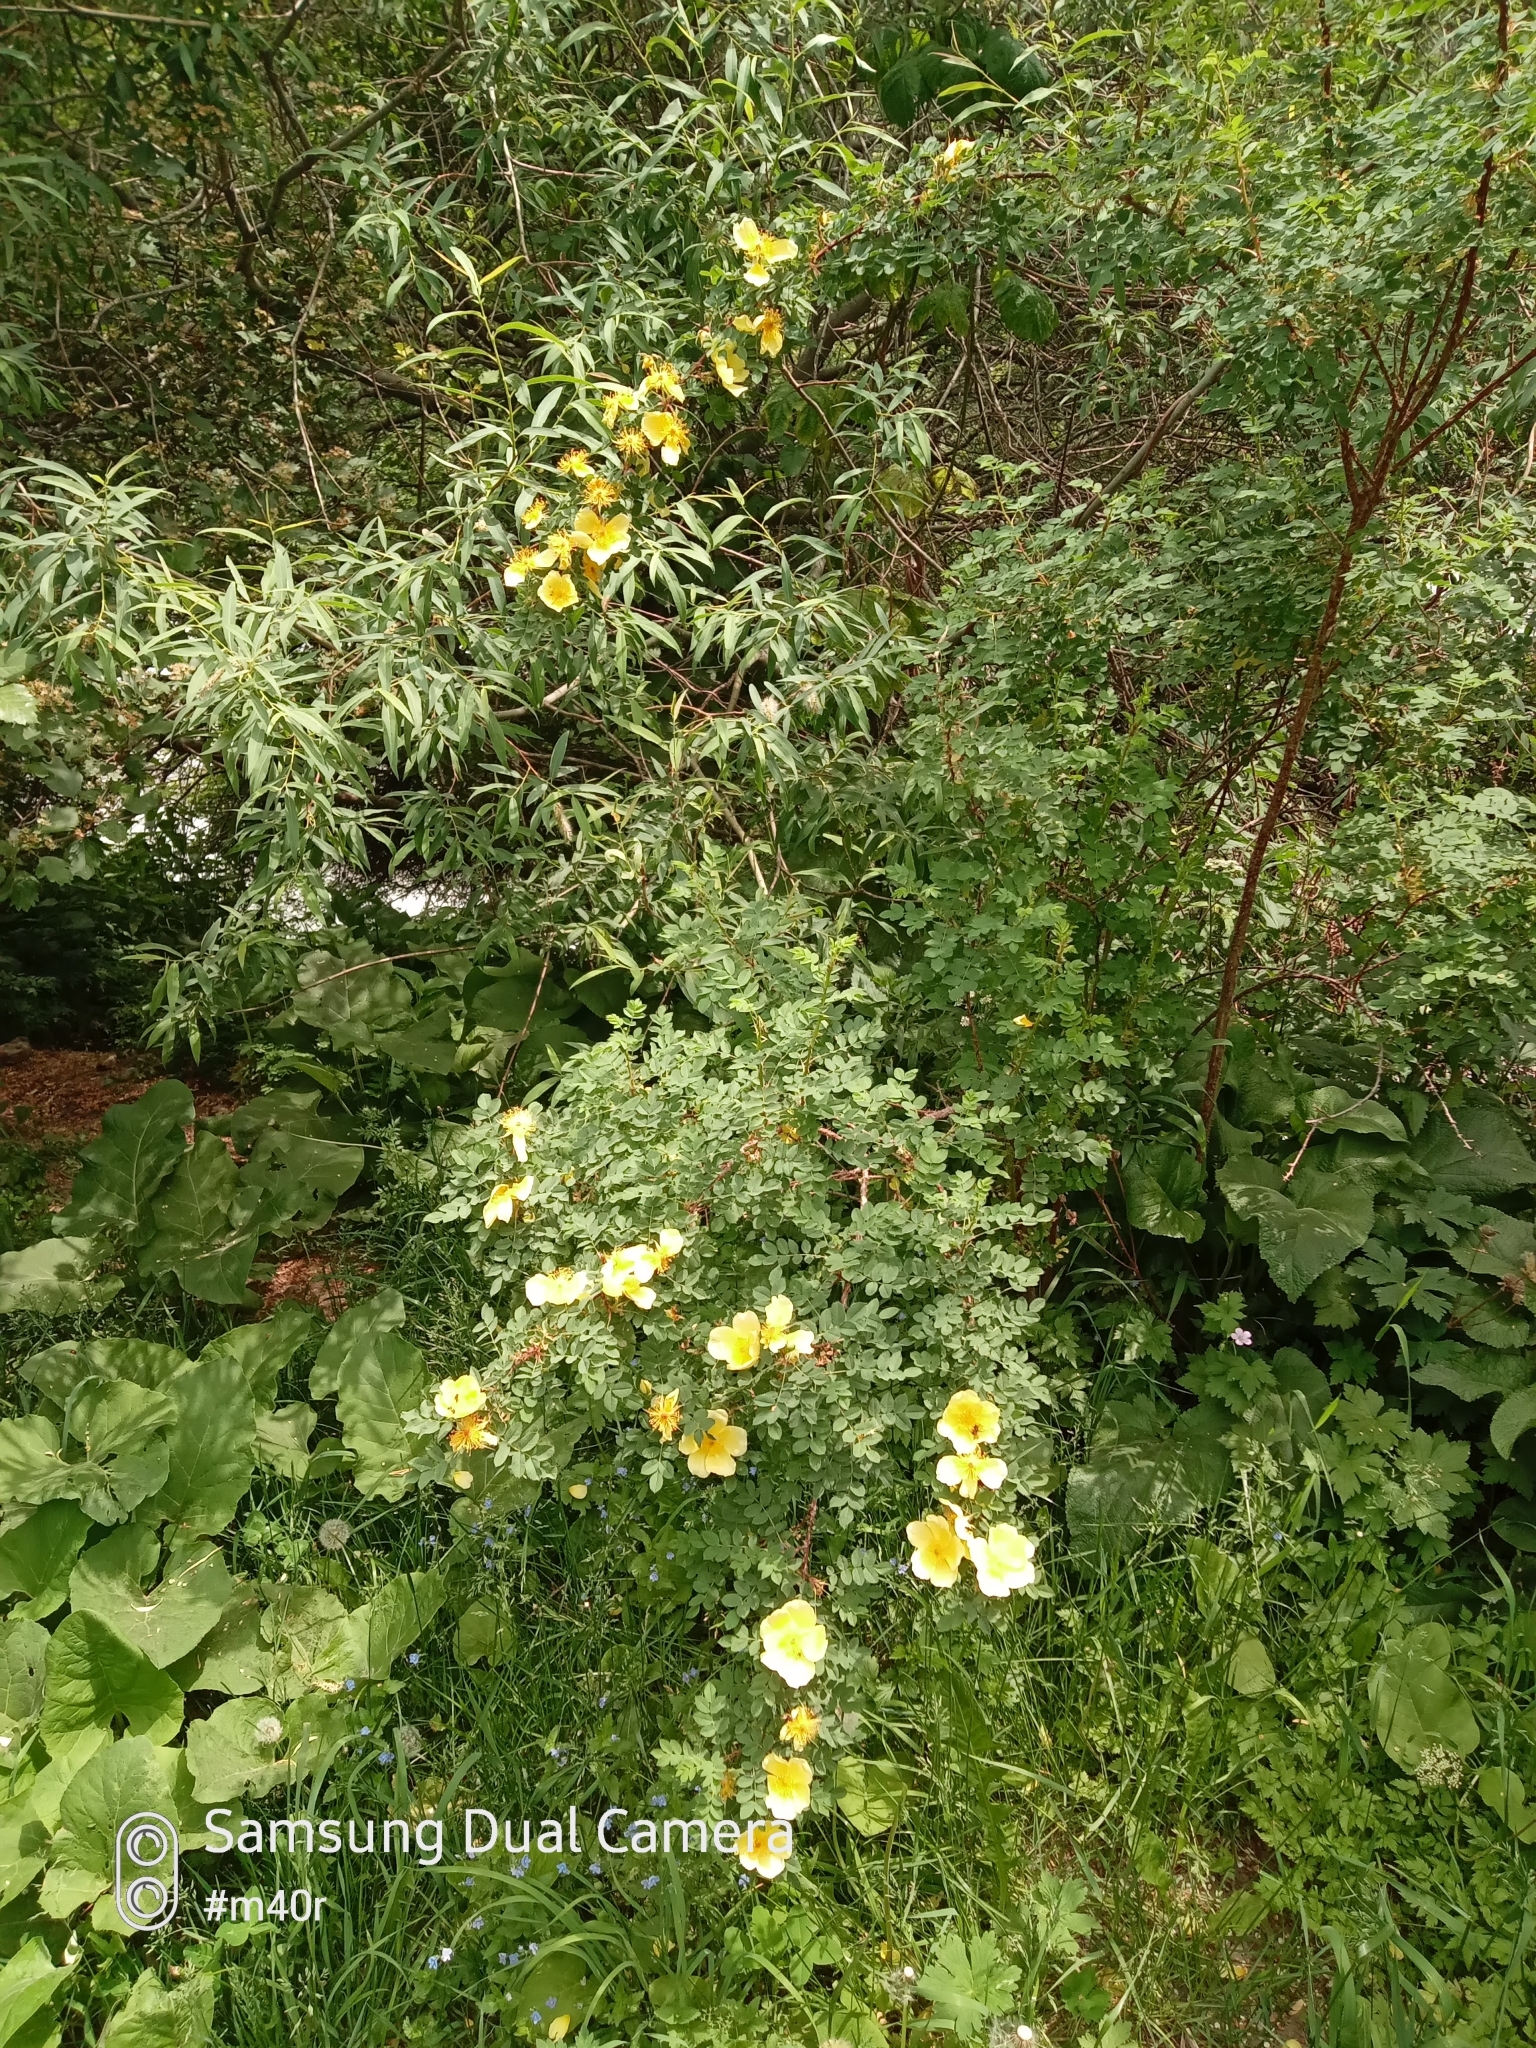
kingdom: Plantae
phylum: Tracheophyta
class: Magnoliopsida
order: Rosales
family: Rosaceae
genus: Rosa
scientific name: Rosa platyacantha
